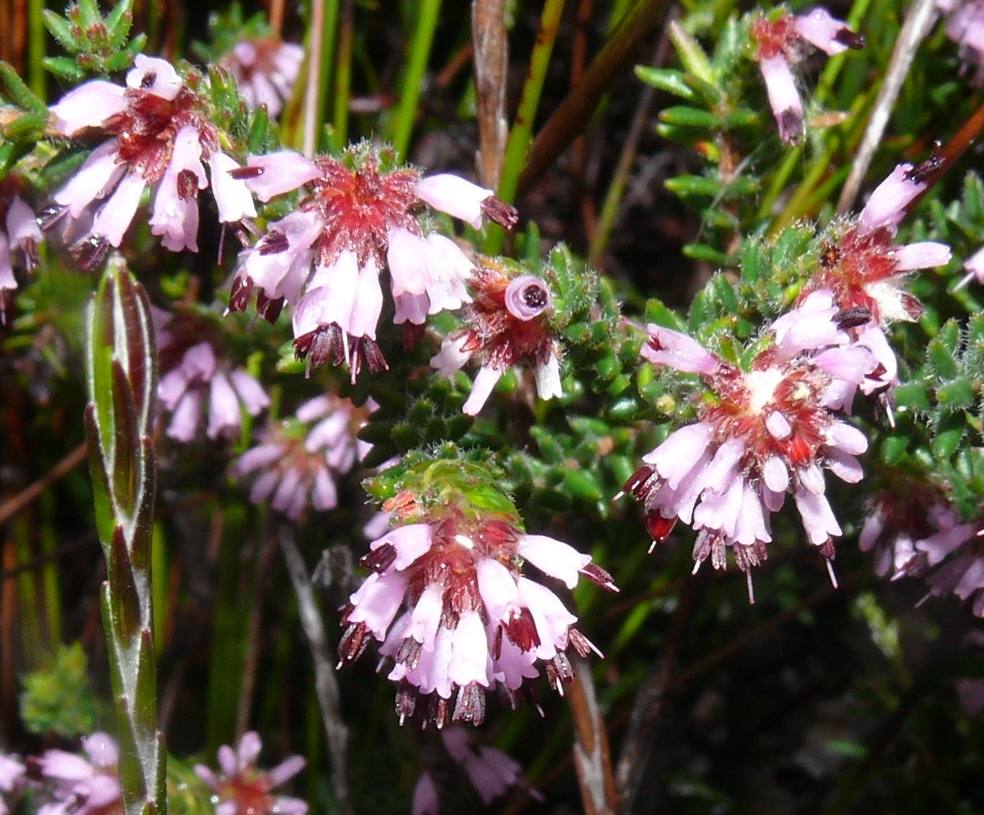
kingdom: Plantae
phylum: Tracheophyta
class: Magnoliopsida
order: Ericales
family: Ericaceae
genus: Erica
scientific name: Erica ericoides
